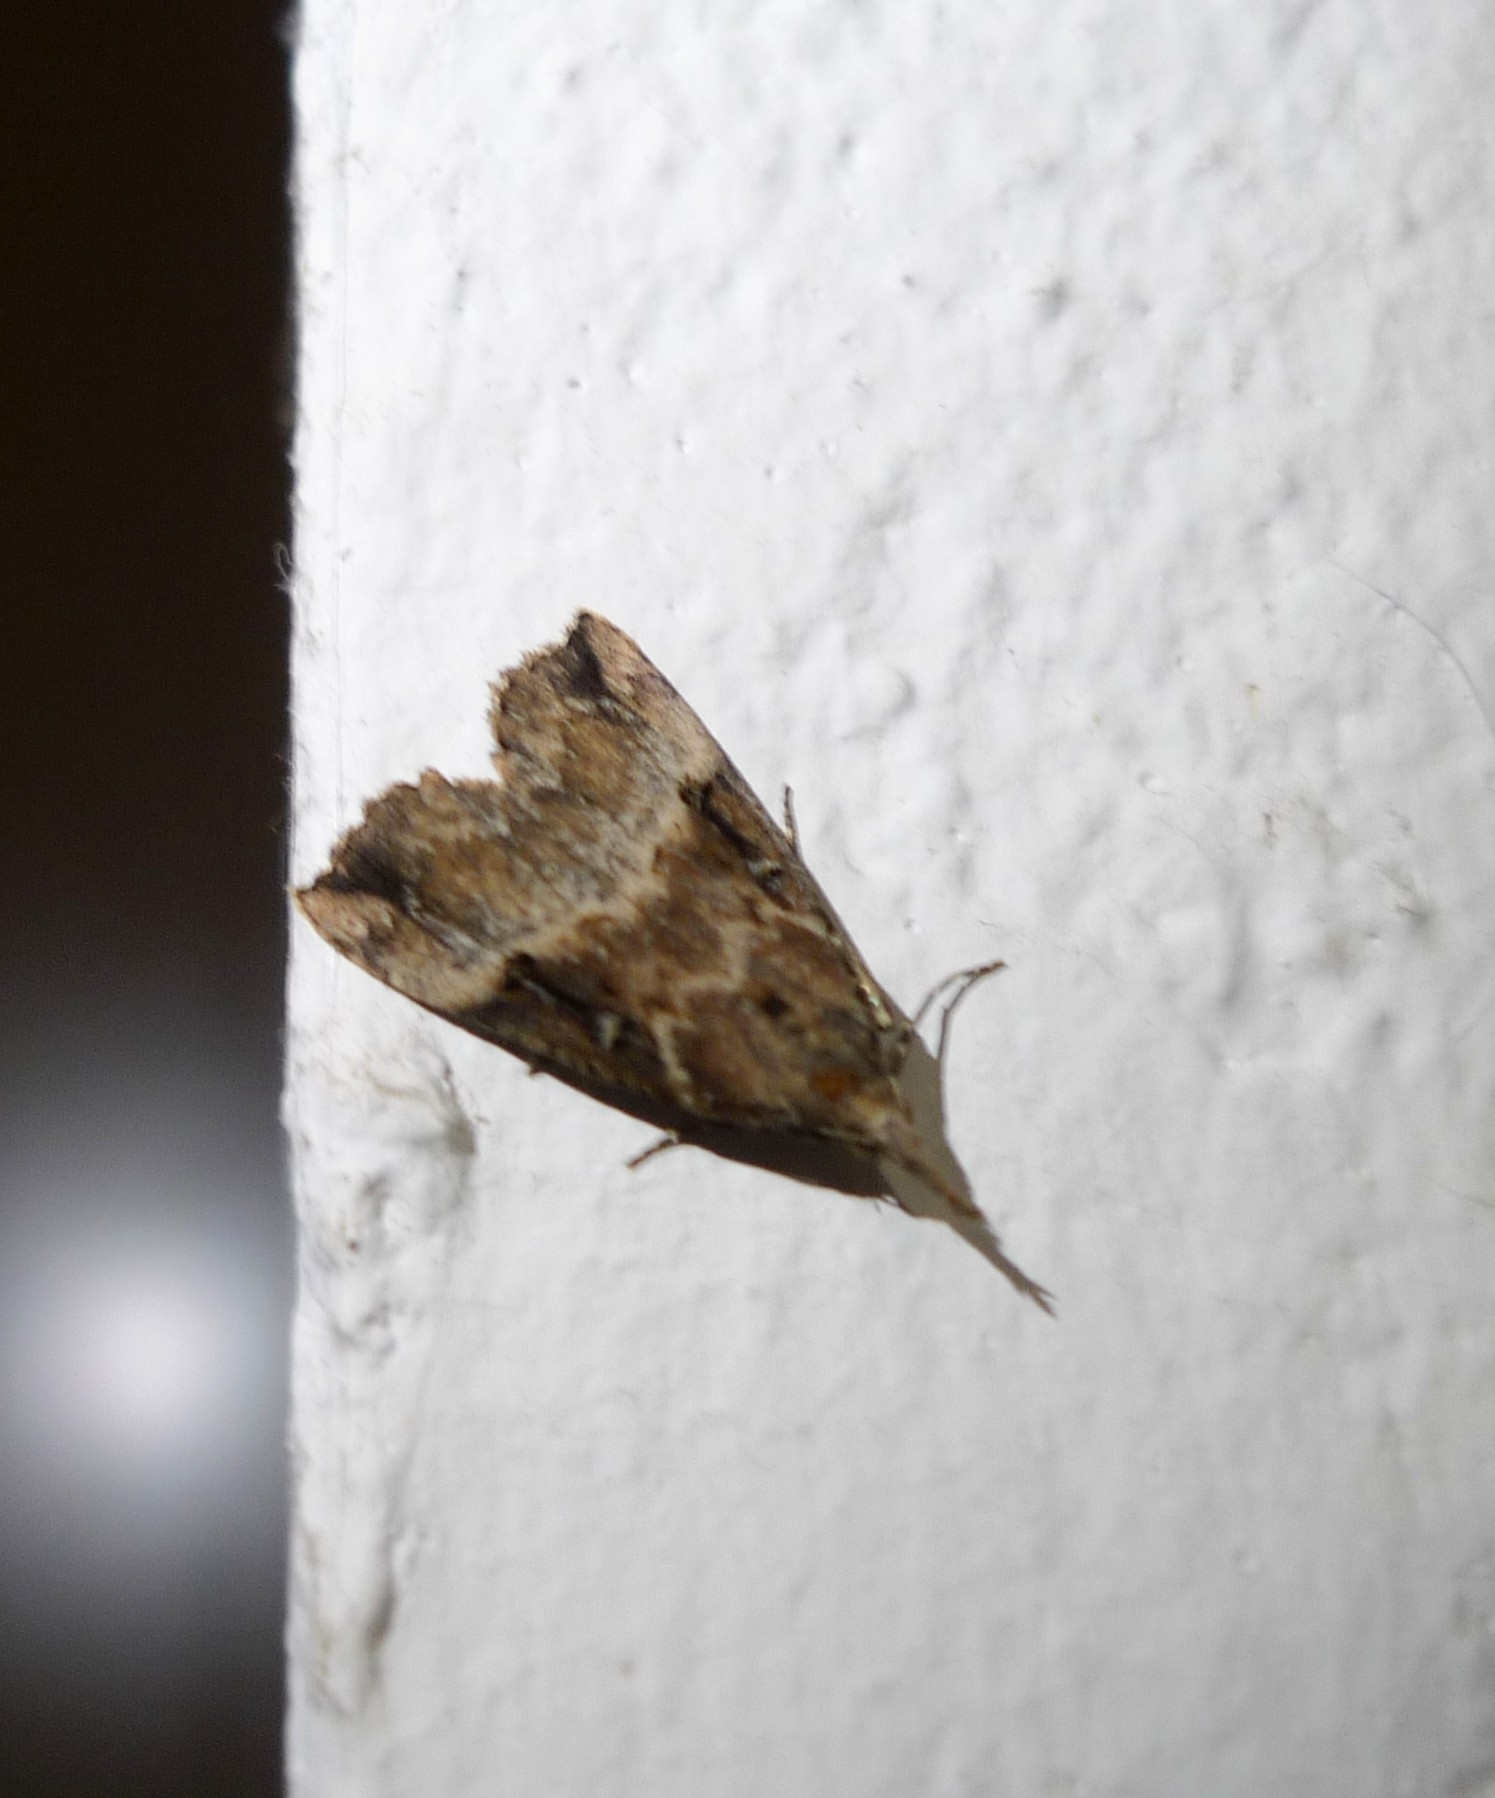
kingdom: Animalia
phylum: Arthropoda
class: Insecta
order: Lepidoptera
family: Erebidae
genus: Hypena
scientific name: Hypena rostralis
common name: Buttoned snout
